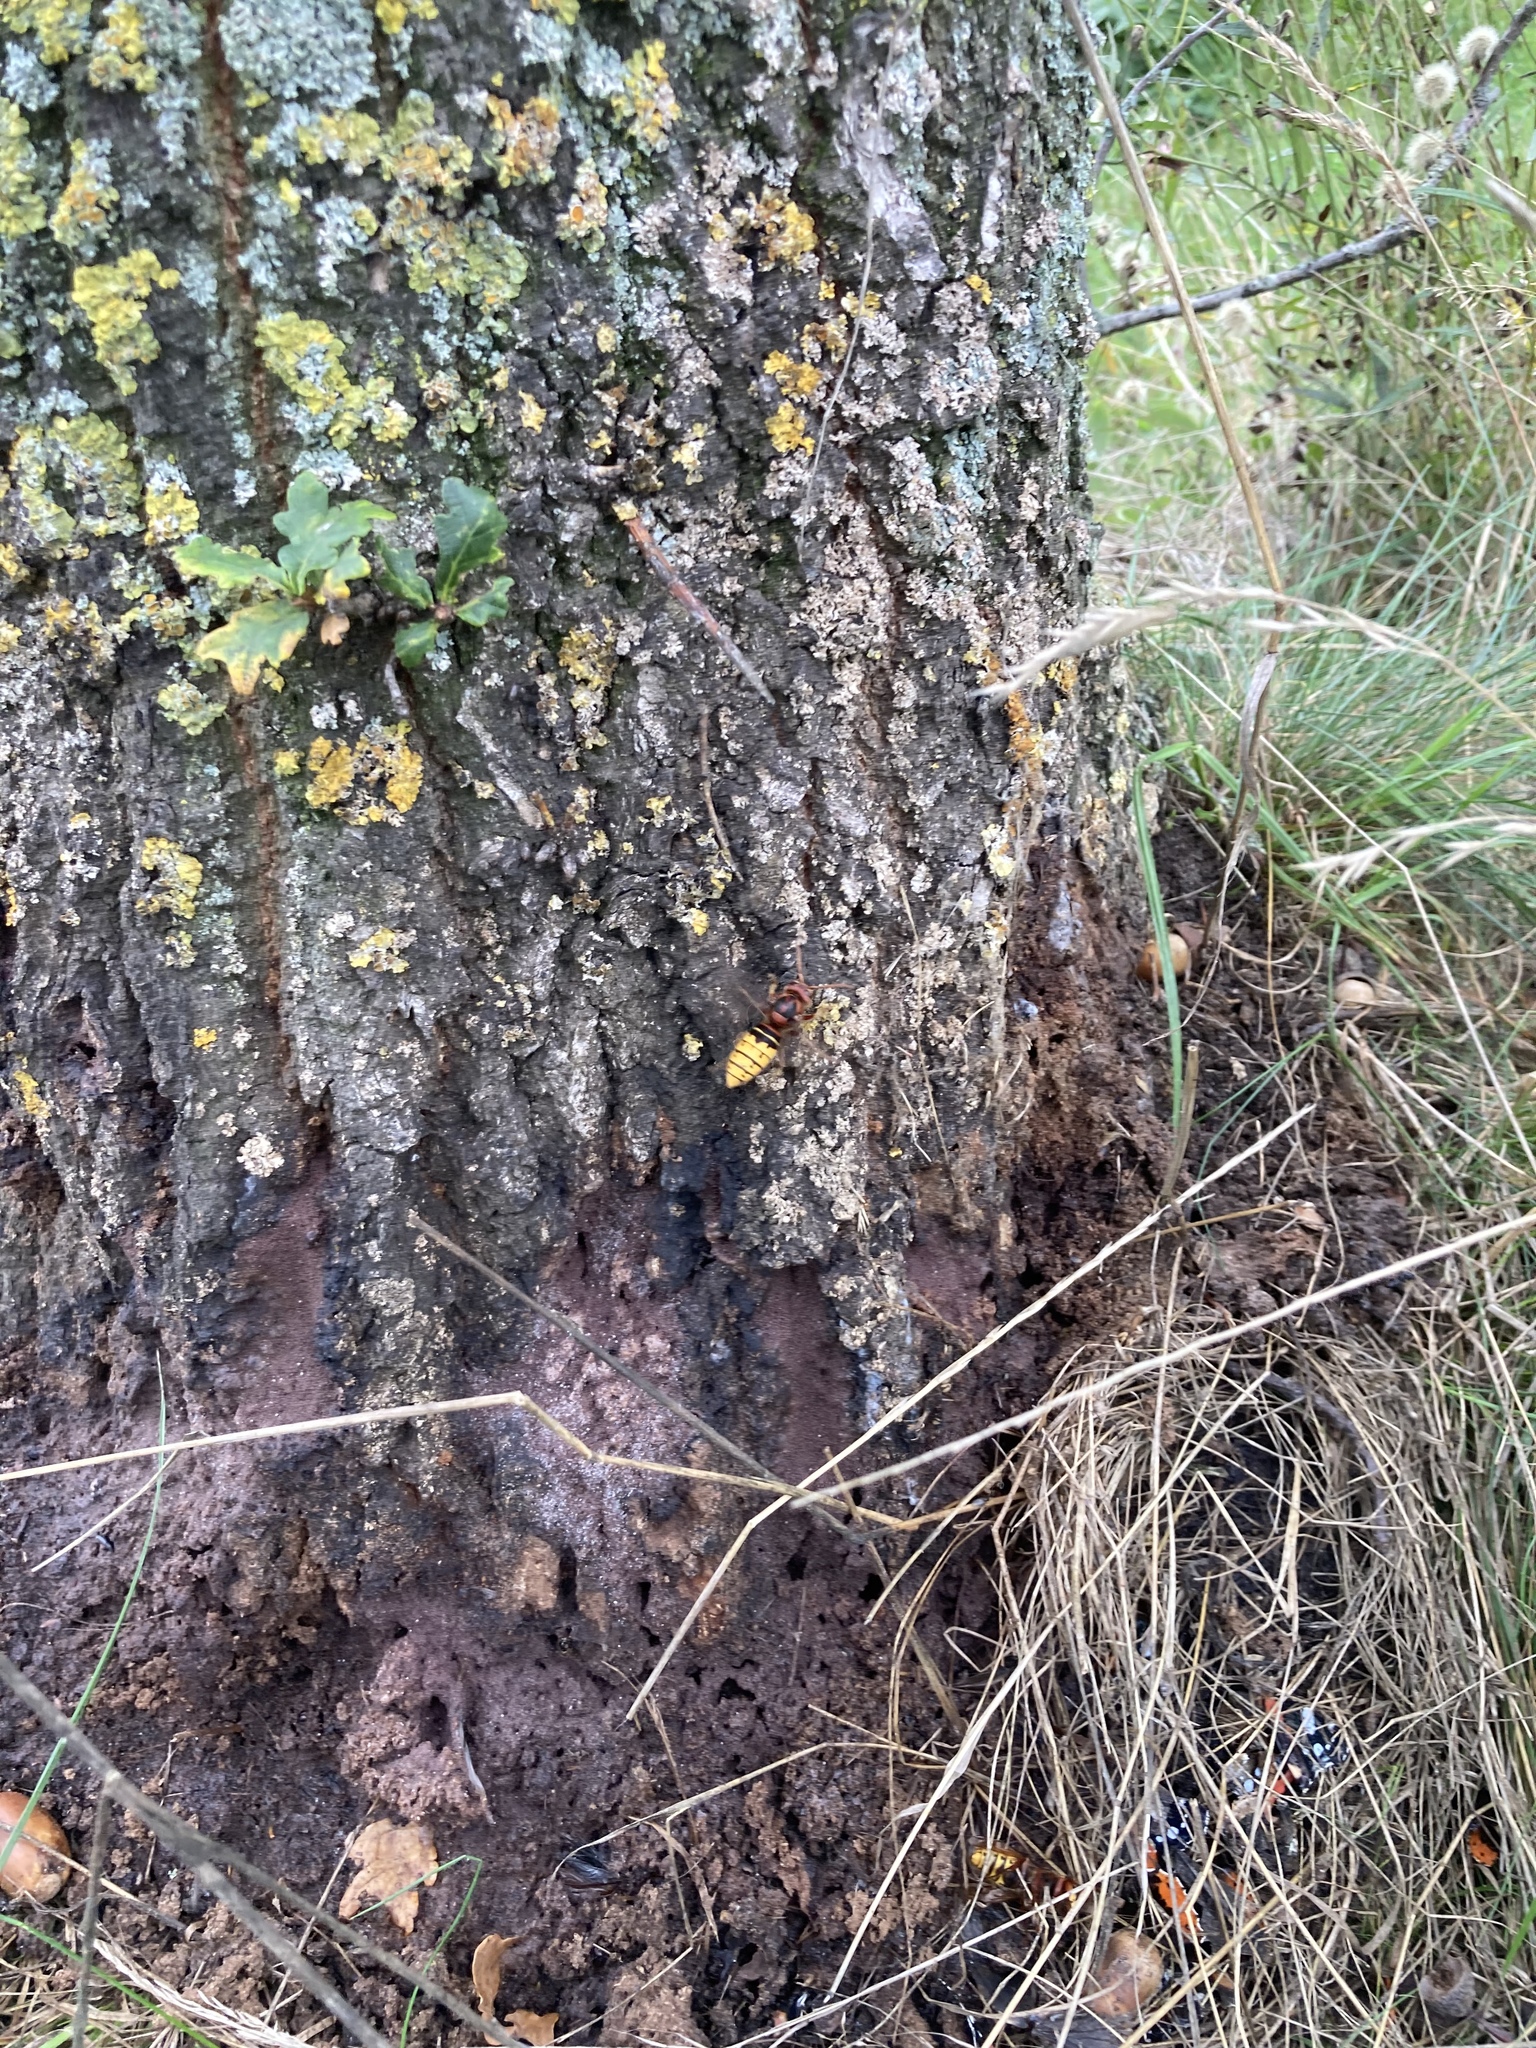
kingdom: Animalia
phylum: Arthropoda
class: Insecta
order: Hymenoptera
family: Vespidae
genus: Vespa
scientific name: Vespa crabro
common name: Hornet
